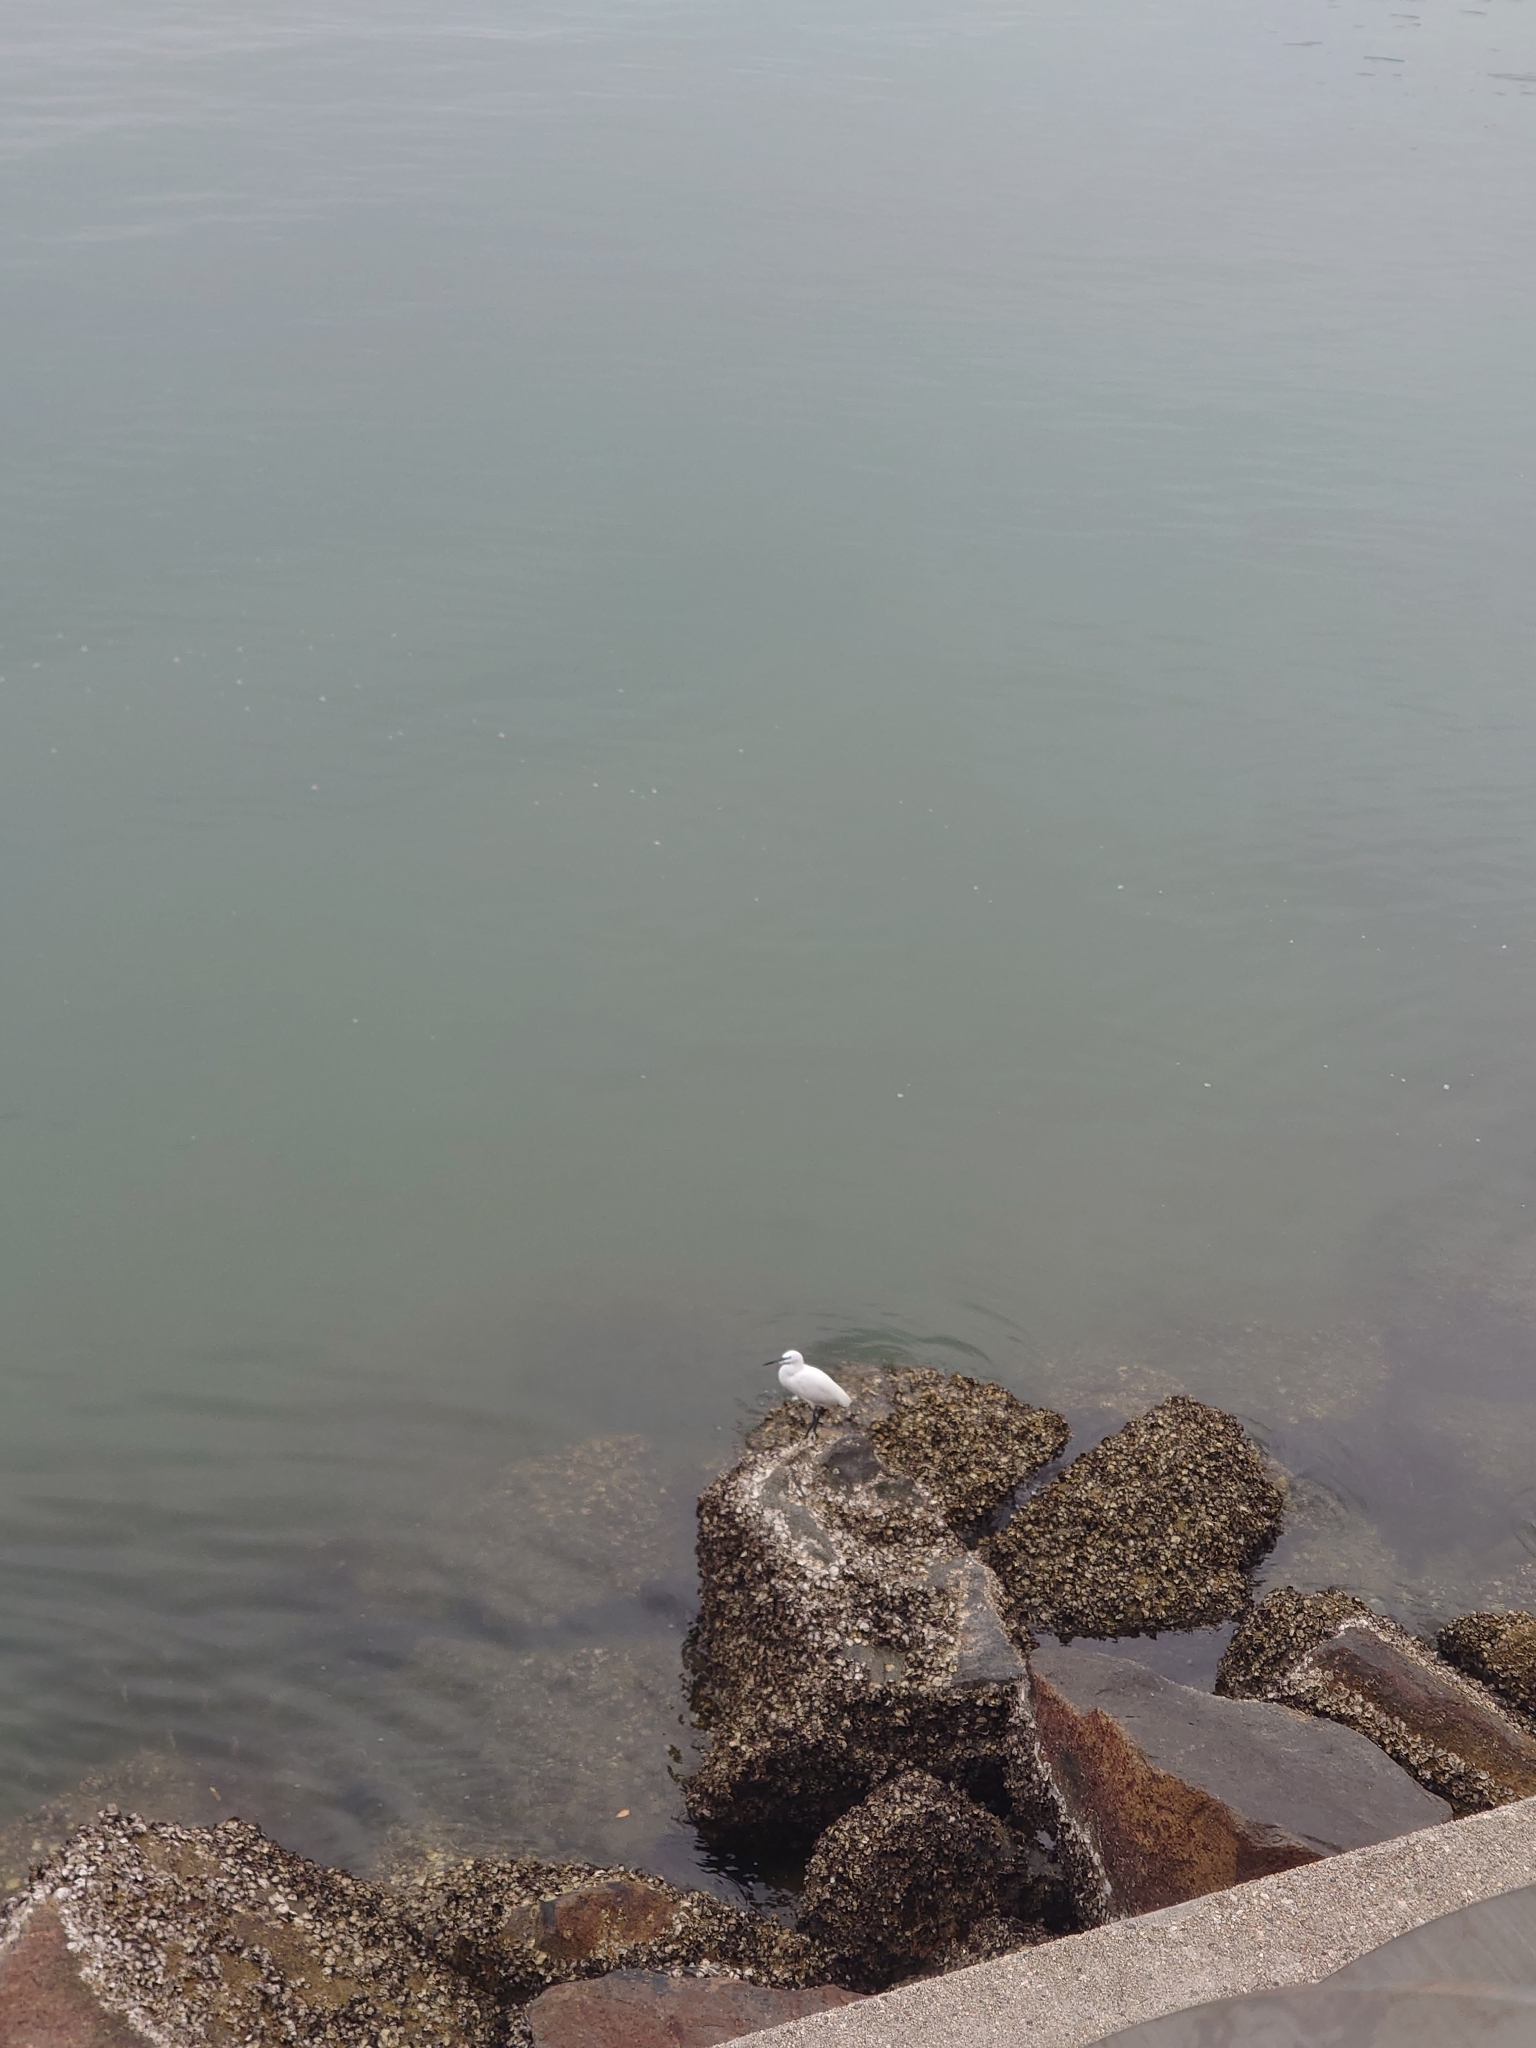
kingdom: Animalia
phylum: Chordata
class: Aves
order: Pelecaniformes
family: Ardeidae
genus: Egretta
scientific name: Egretta garzetta
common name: Little egret
